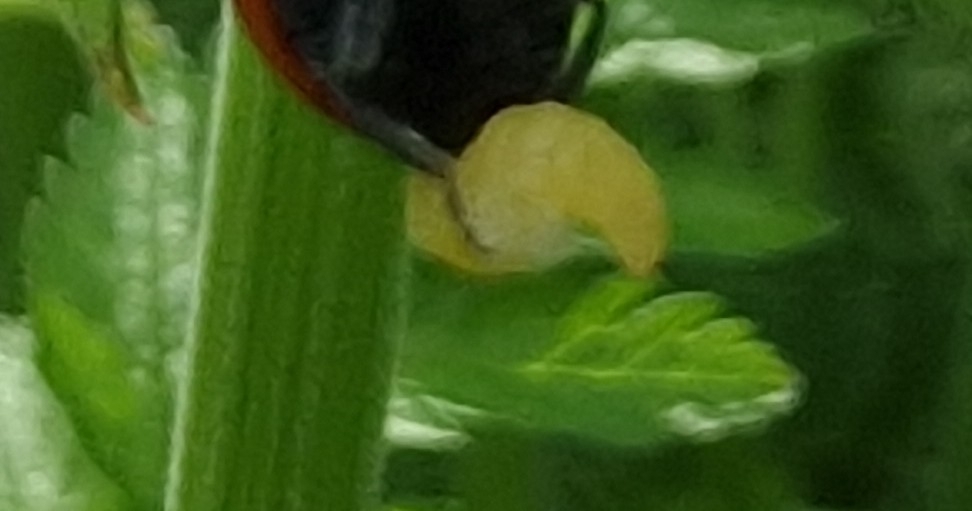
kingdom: Animalia
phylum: Arthropoda
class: Insecta
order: Hymenoptera
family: Braconidae
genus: Dinocampus
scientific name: Dinocampus coccinellae
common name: Braconid wasp
